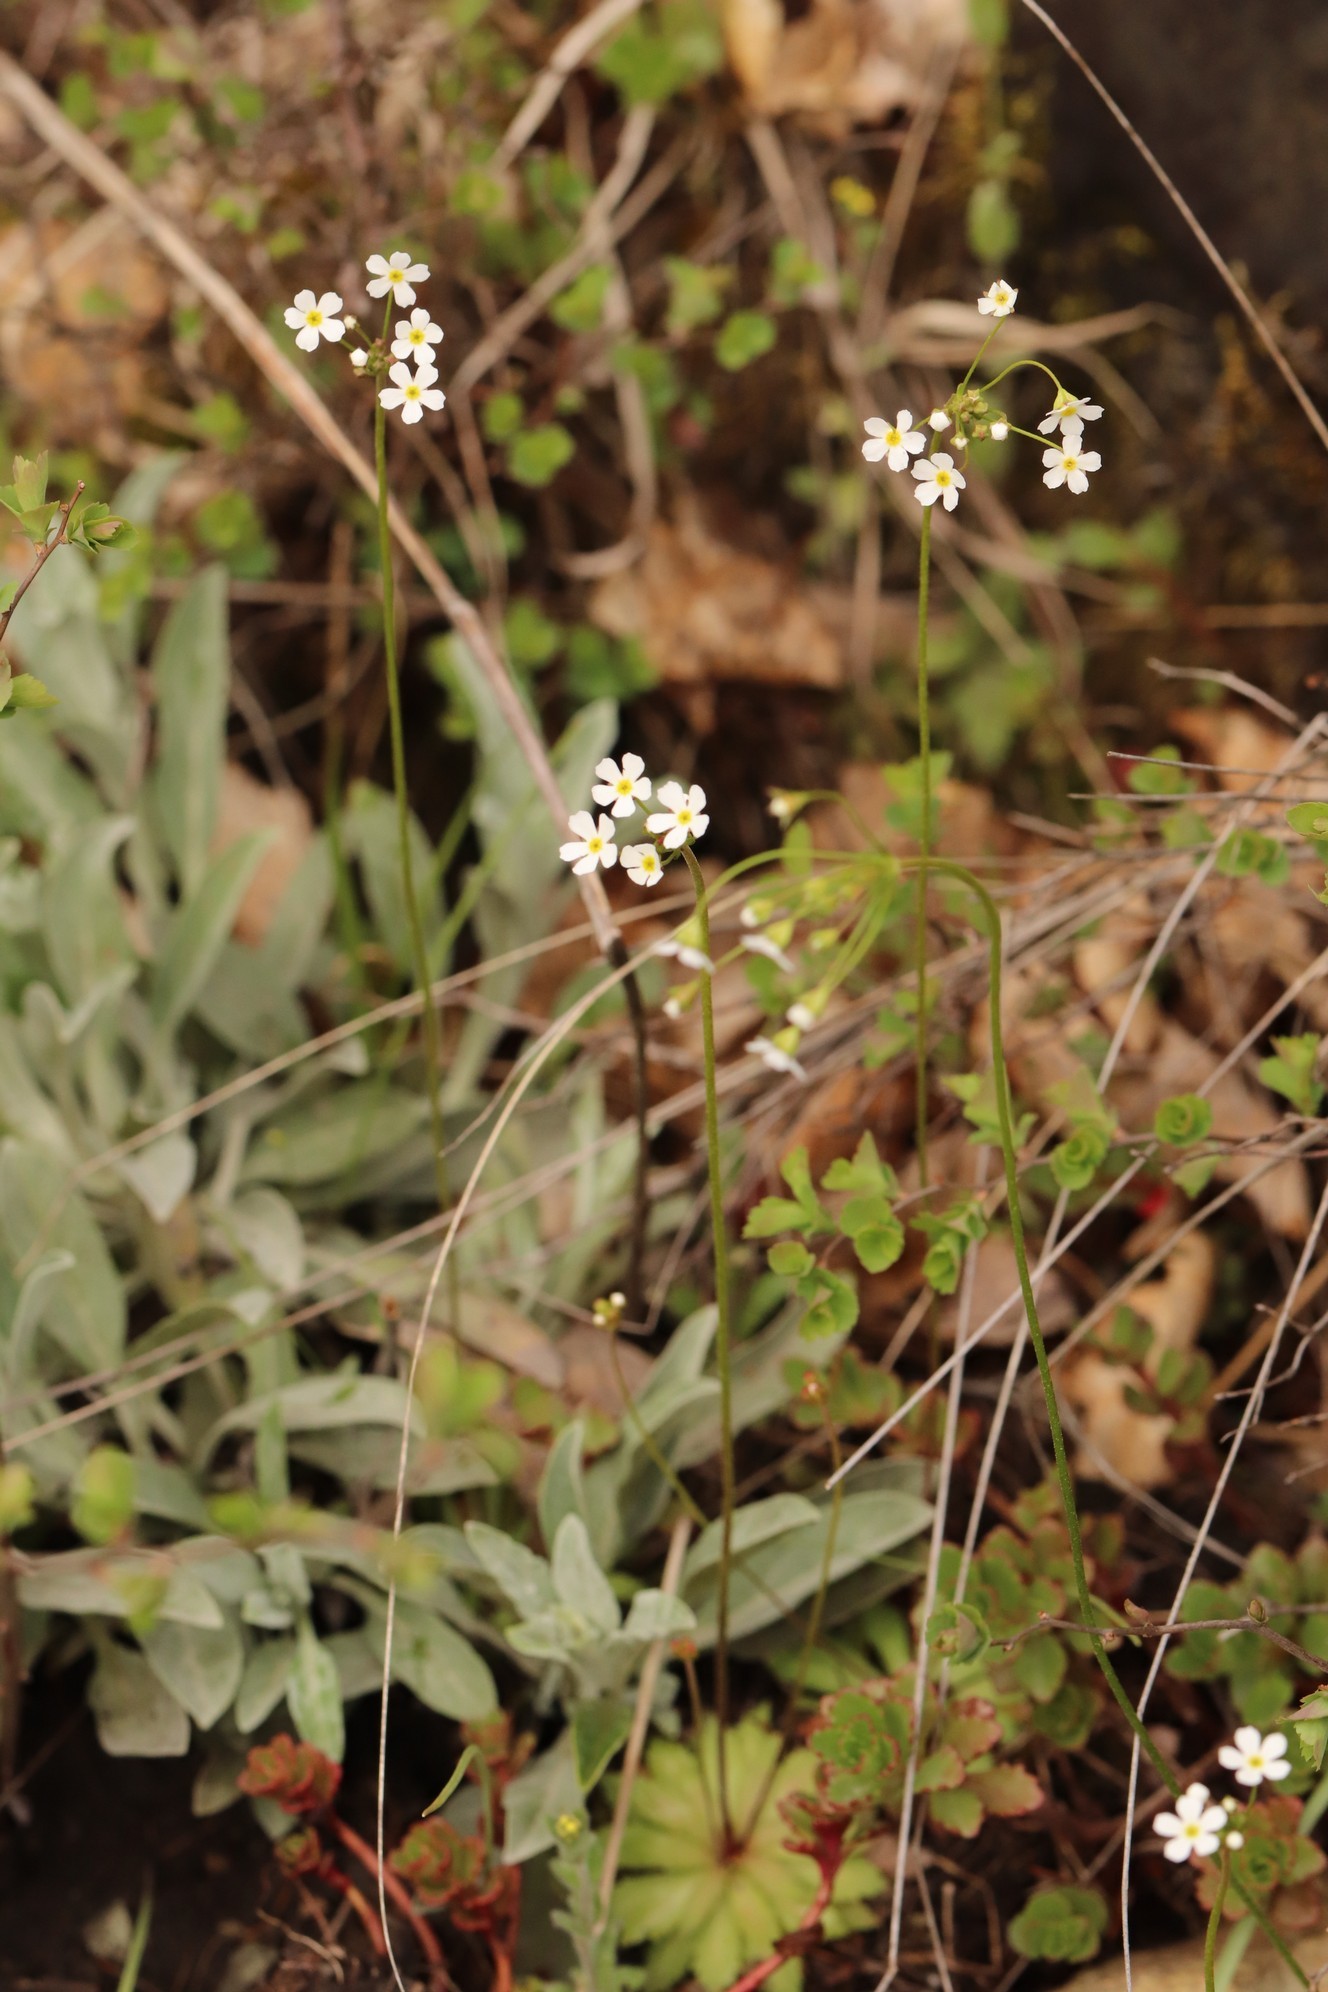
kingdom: Plantae
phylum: Tracheophyta
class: Magnoliopsida
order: Ericales
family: Primulaceae
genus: Androsace
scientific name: Androsace septentrionalis
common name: Hairy northern fairy-candelabra
